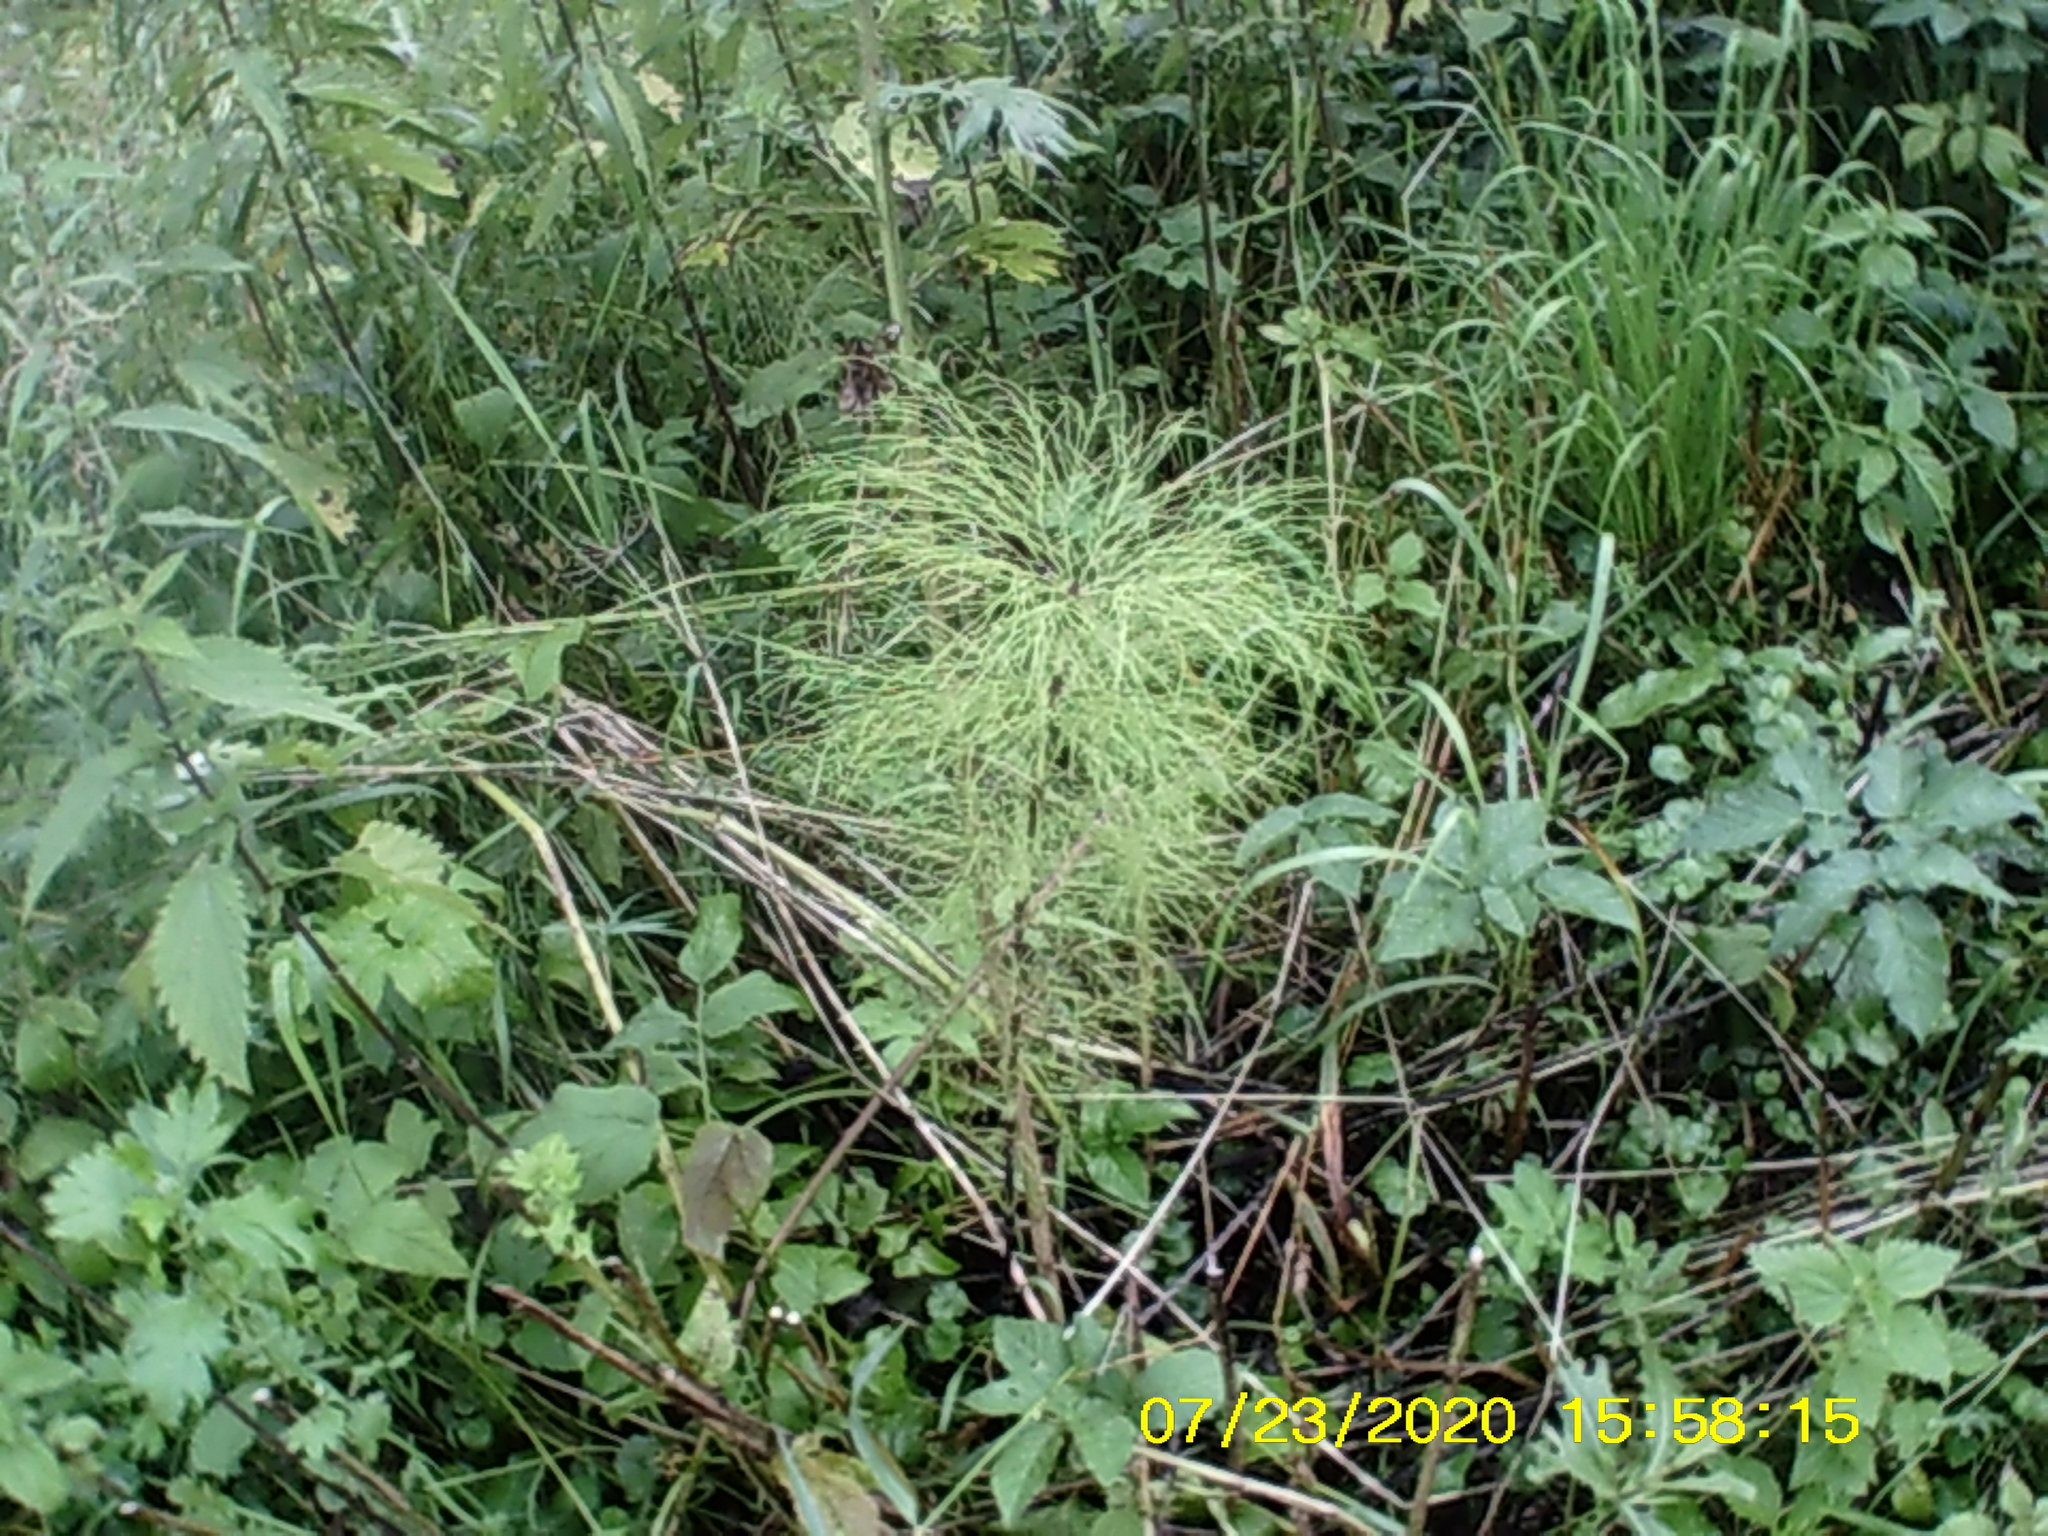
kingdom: Plantae
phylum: Tracheophyta
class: Polypodiopsida
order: Equisetales
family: Equisetaceae
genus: Equisetum
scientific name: Equisetum sylvaticum
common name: Wood horsetail
